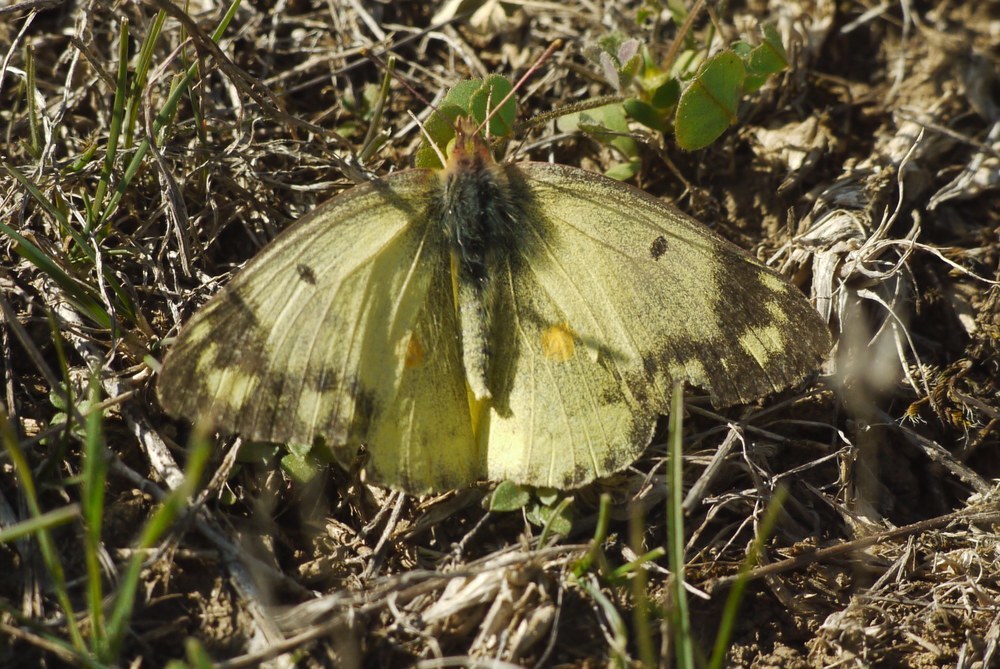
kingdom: Animalia
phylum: Arthropoda
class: Insecta
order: Lepidoptera
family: Pieridae
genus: Colias
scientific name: Colias erate
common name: Eastern pale clouded yellow
